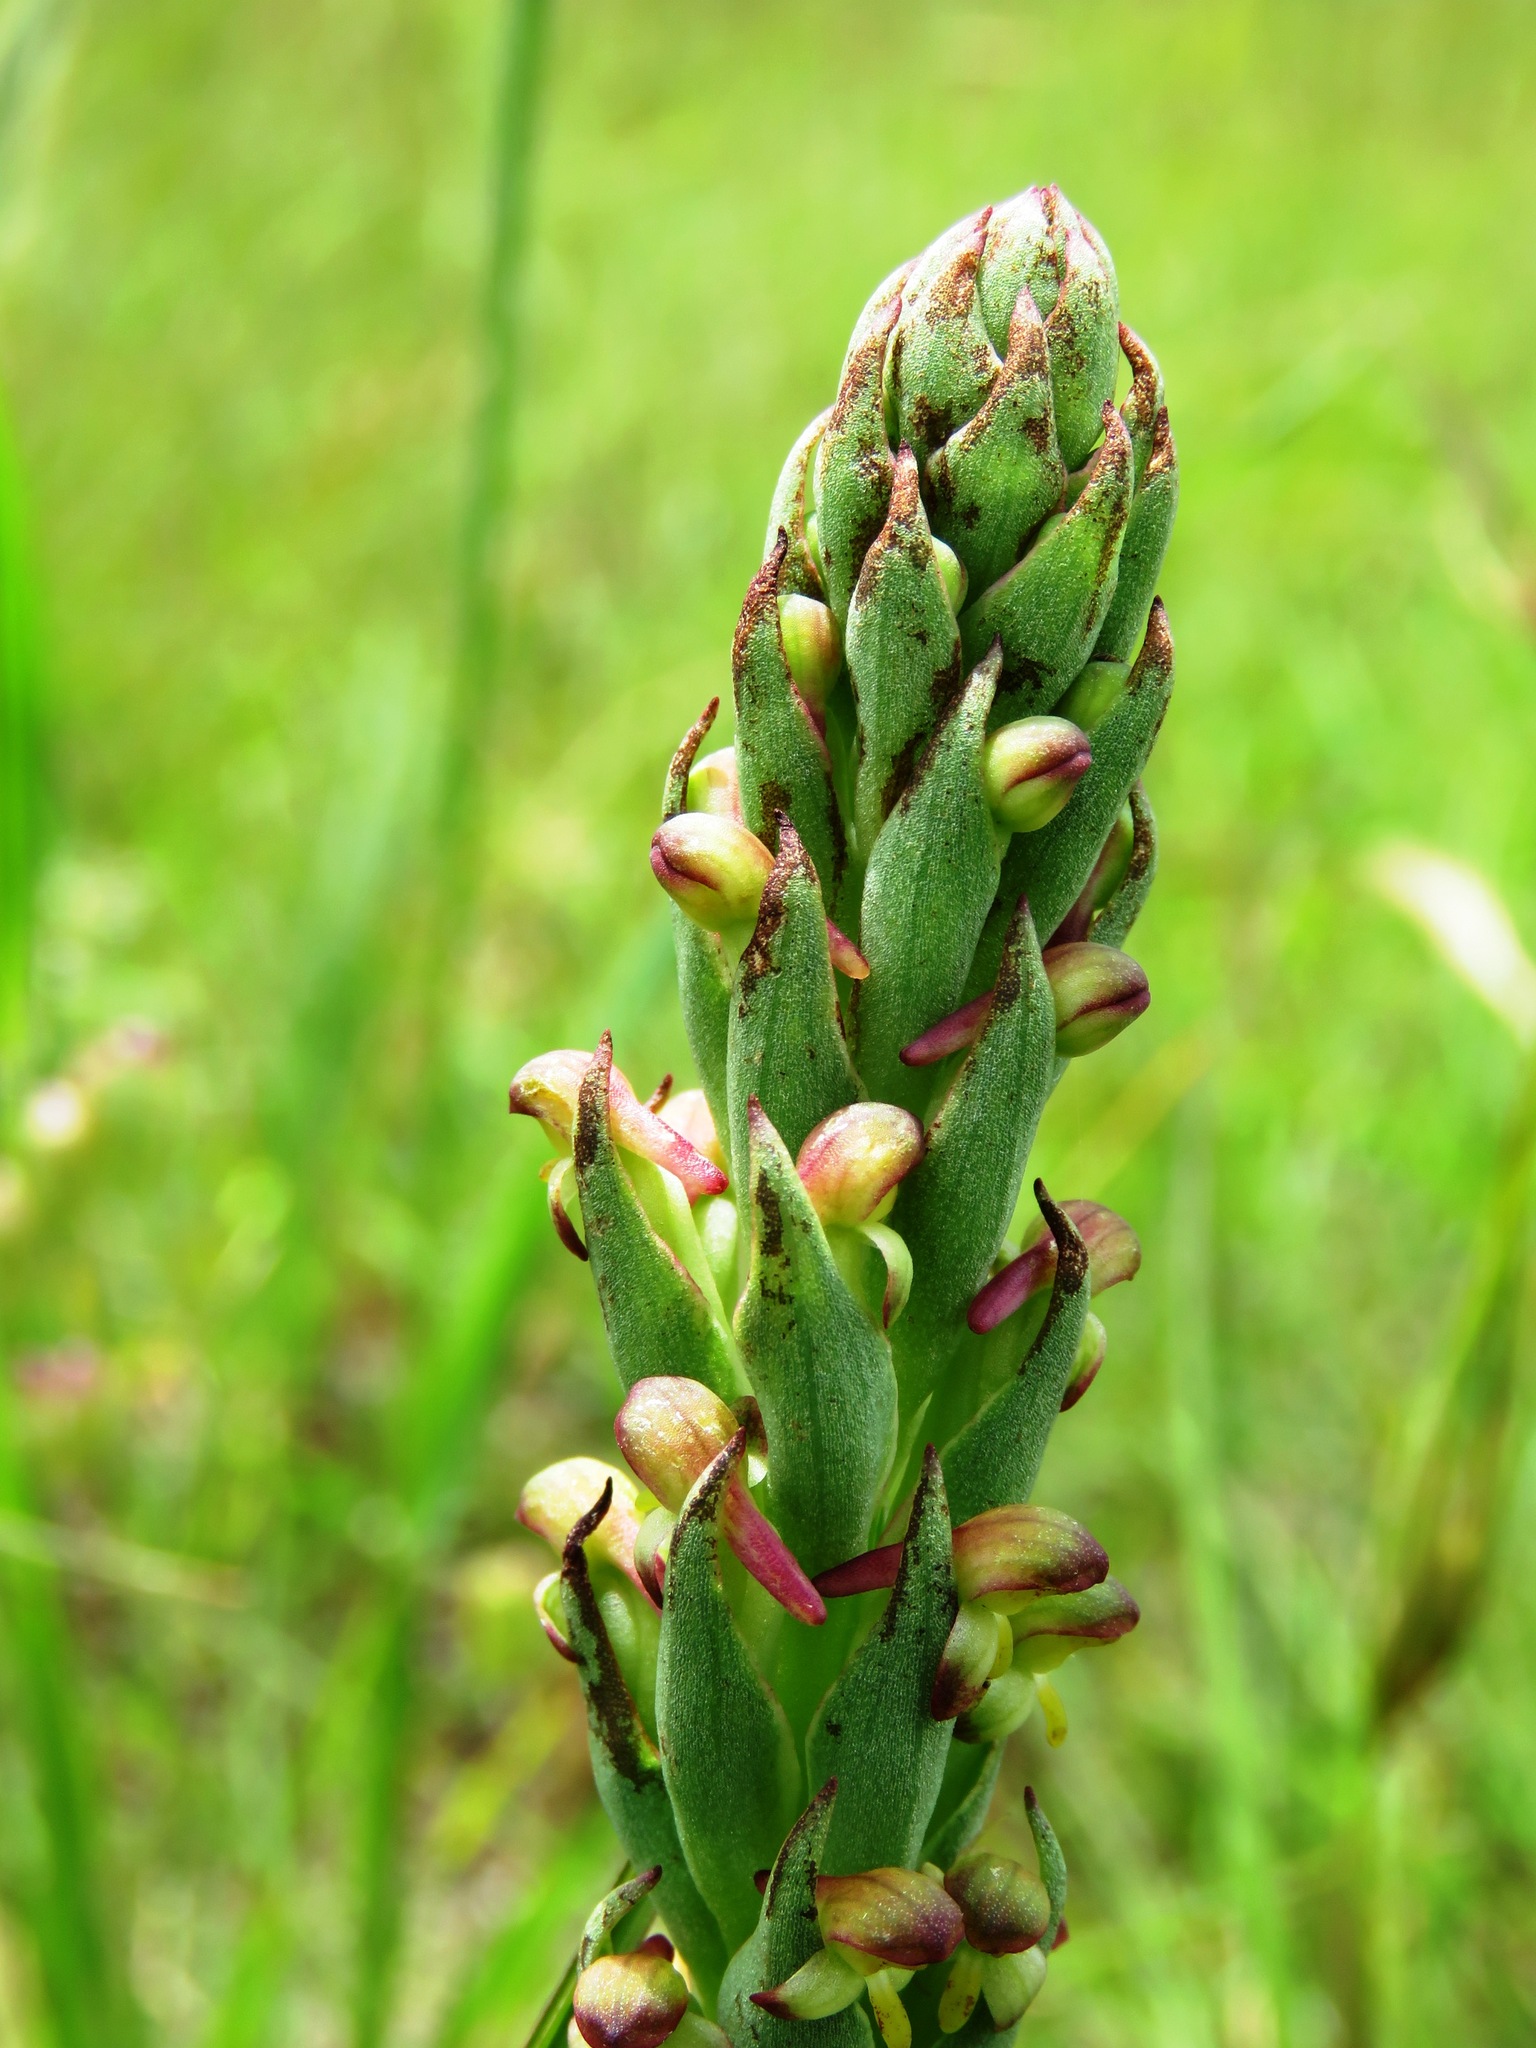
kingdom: Plantae
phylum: Tracheophyta
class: Liliopsida
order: Asparagales
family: Orchidaceae
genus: Disa
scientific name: Disa bracteata
